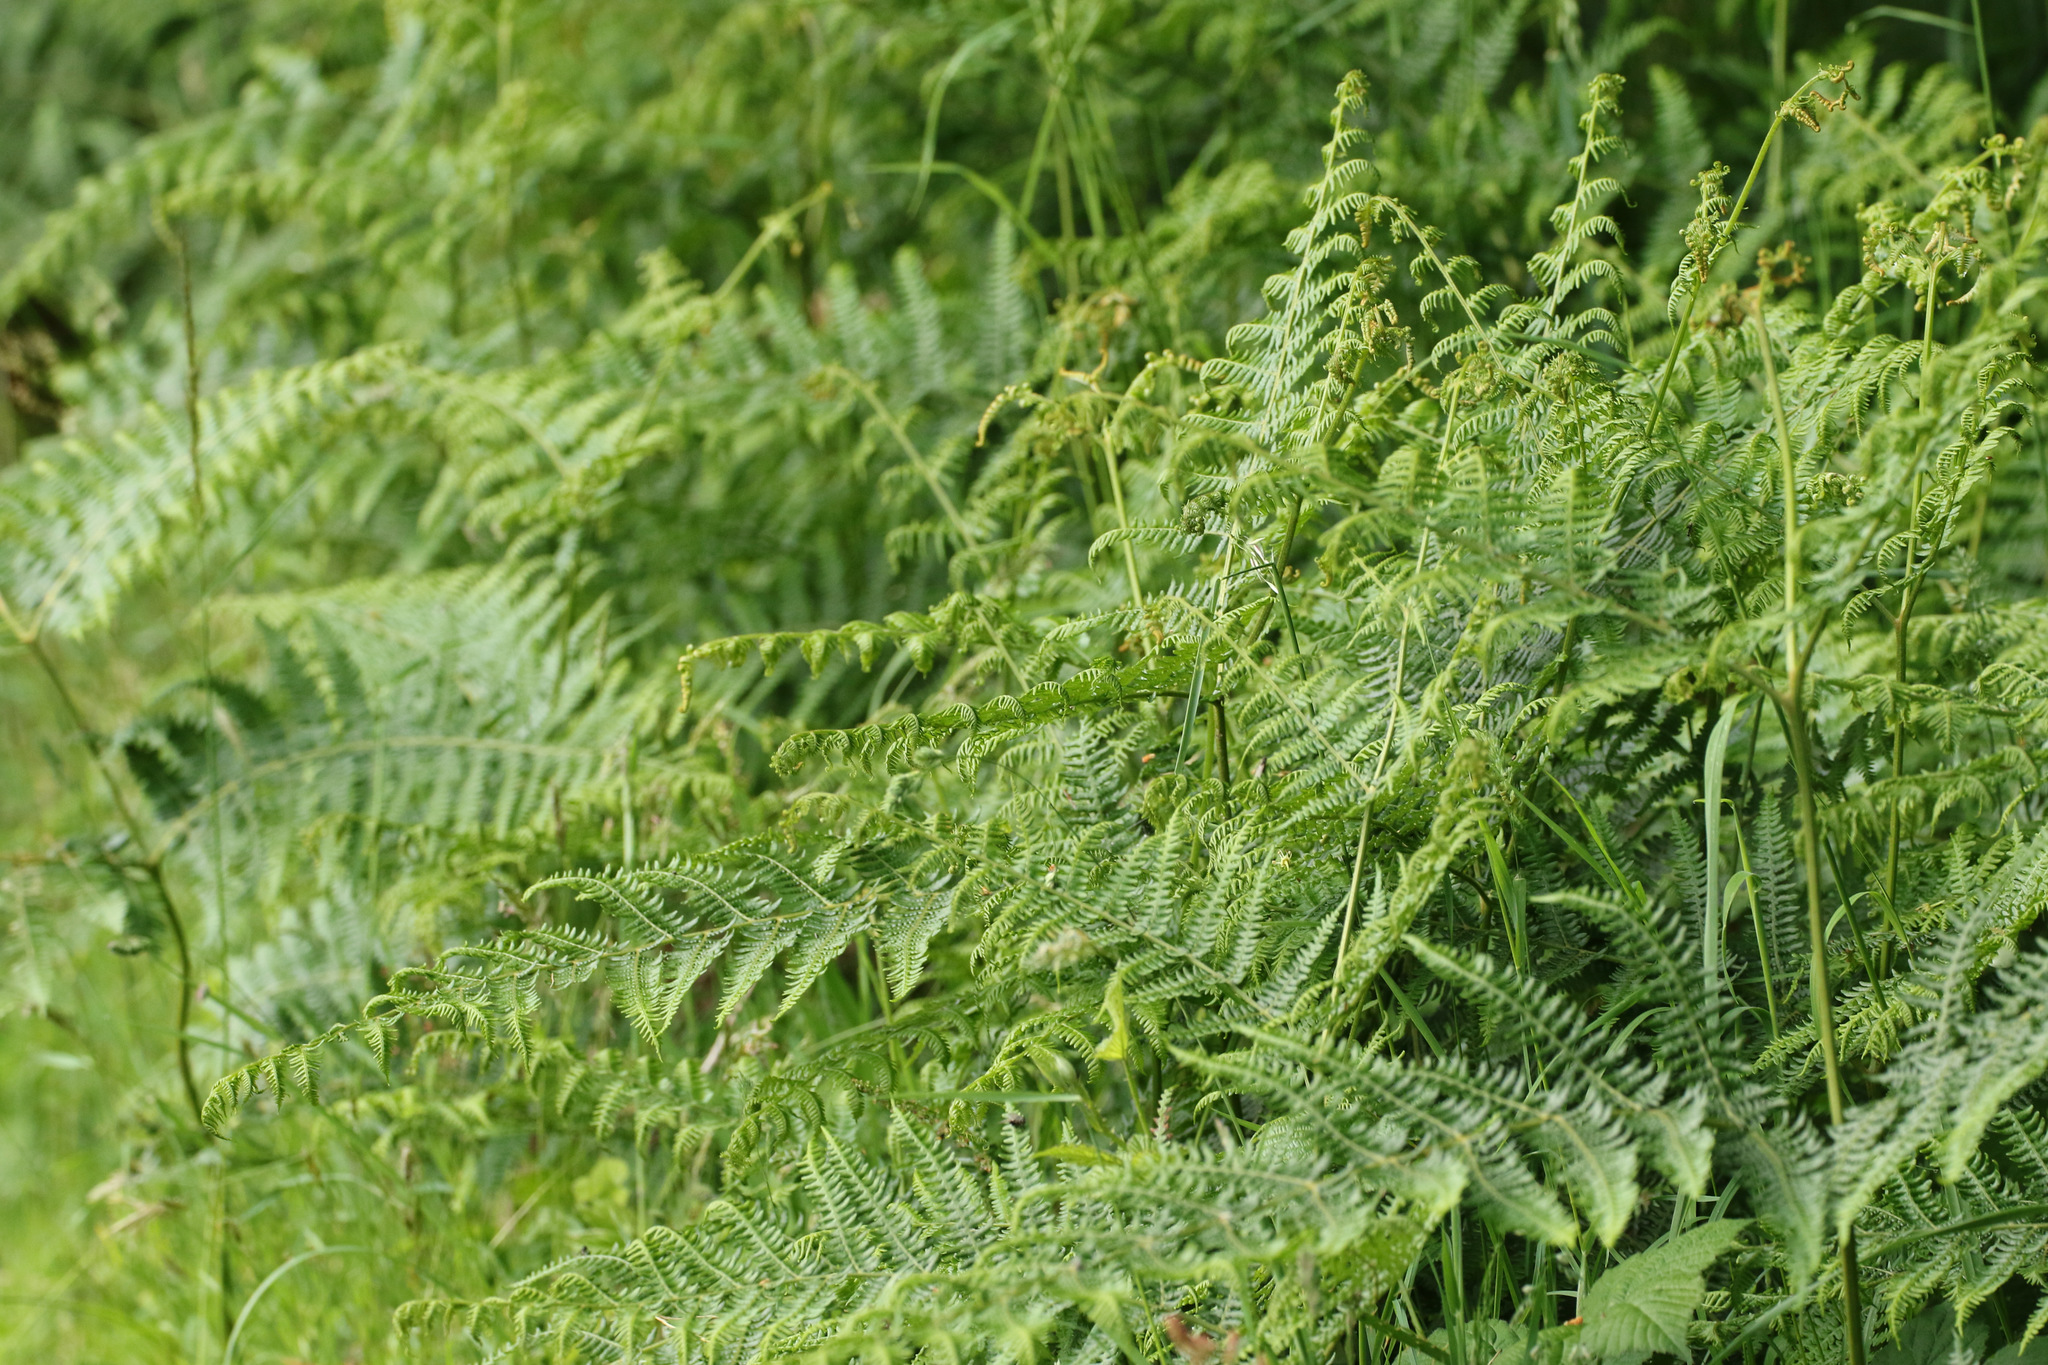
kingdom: Plantae
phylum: Tracheophyta
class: Polypodiopsida
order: Polypodiales
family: Dennstaedtiaceae
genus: Pteridium
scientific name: Pteridium aquilinum
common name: Bracken
